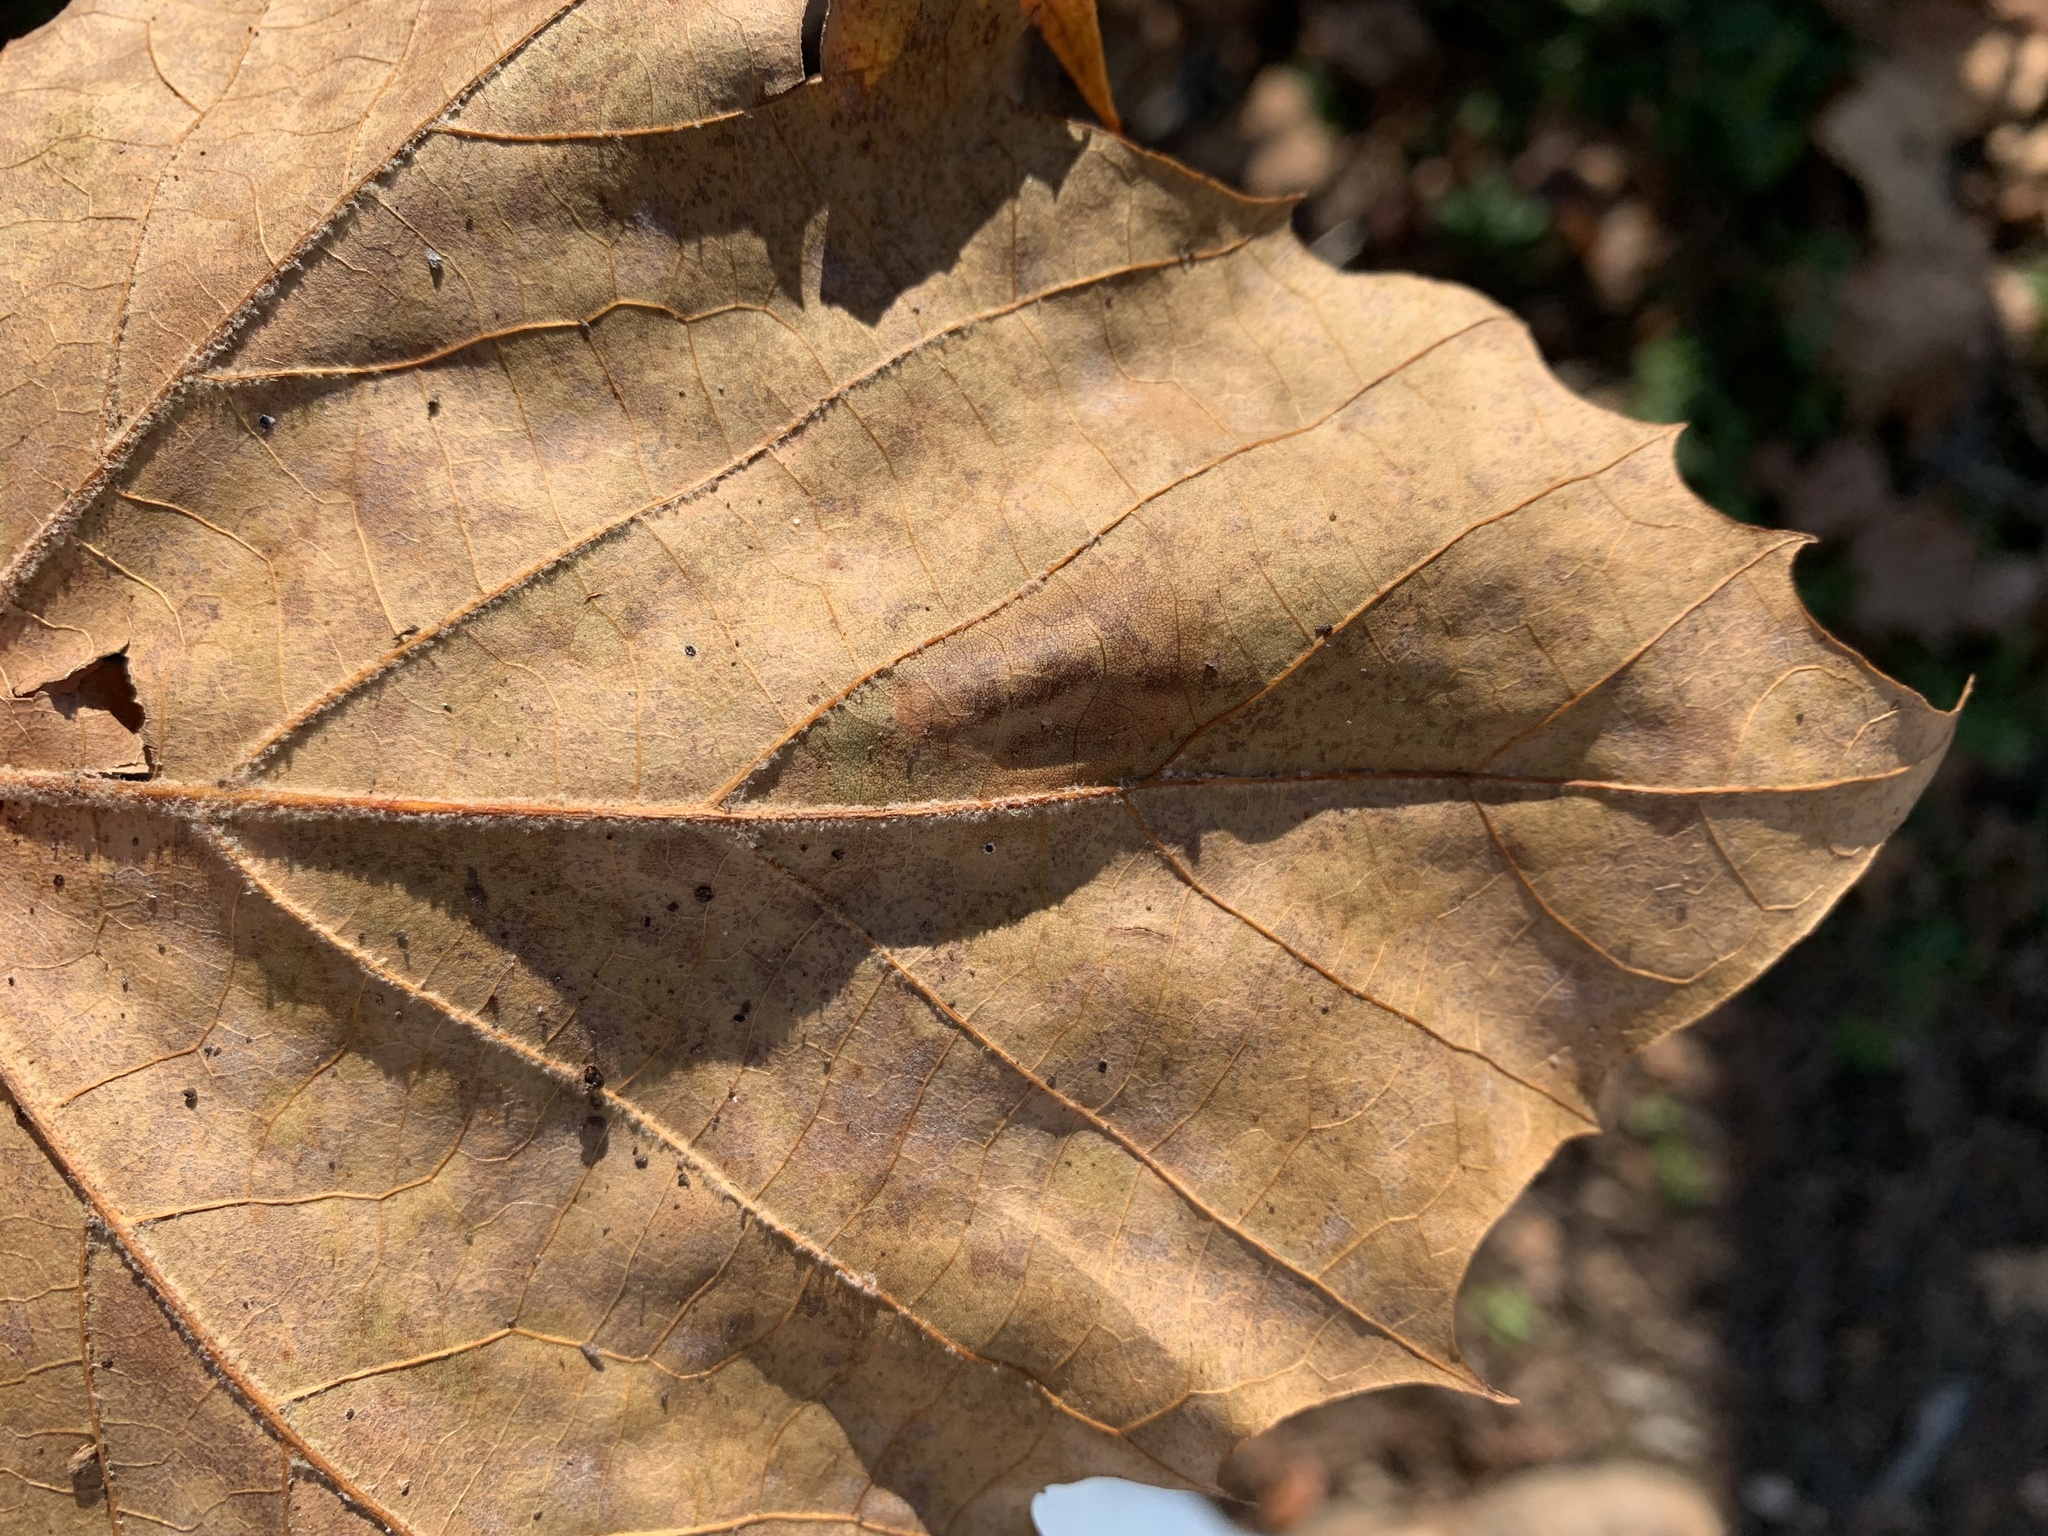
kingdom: Animalia
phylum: Arthropoda
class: Insecta
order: Lepidoptera
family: Nepticulidae
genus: Ectoedemia
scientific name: Ectoedemia platanella
